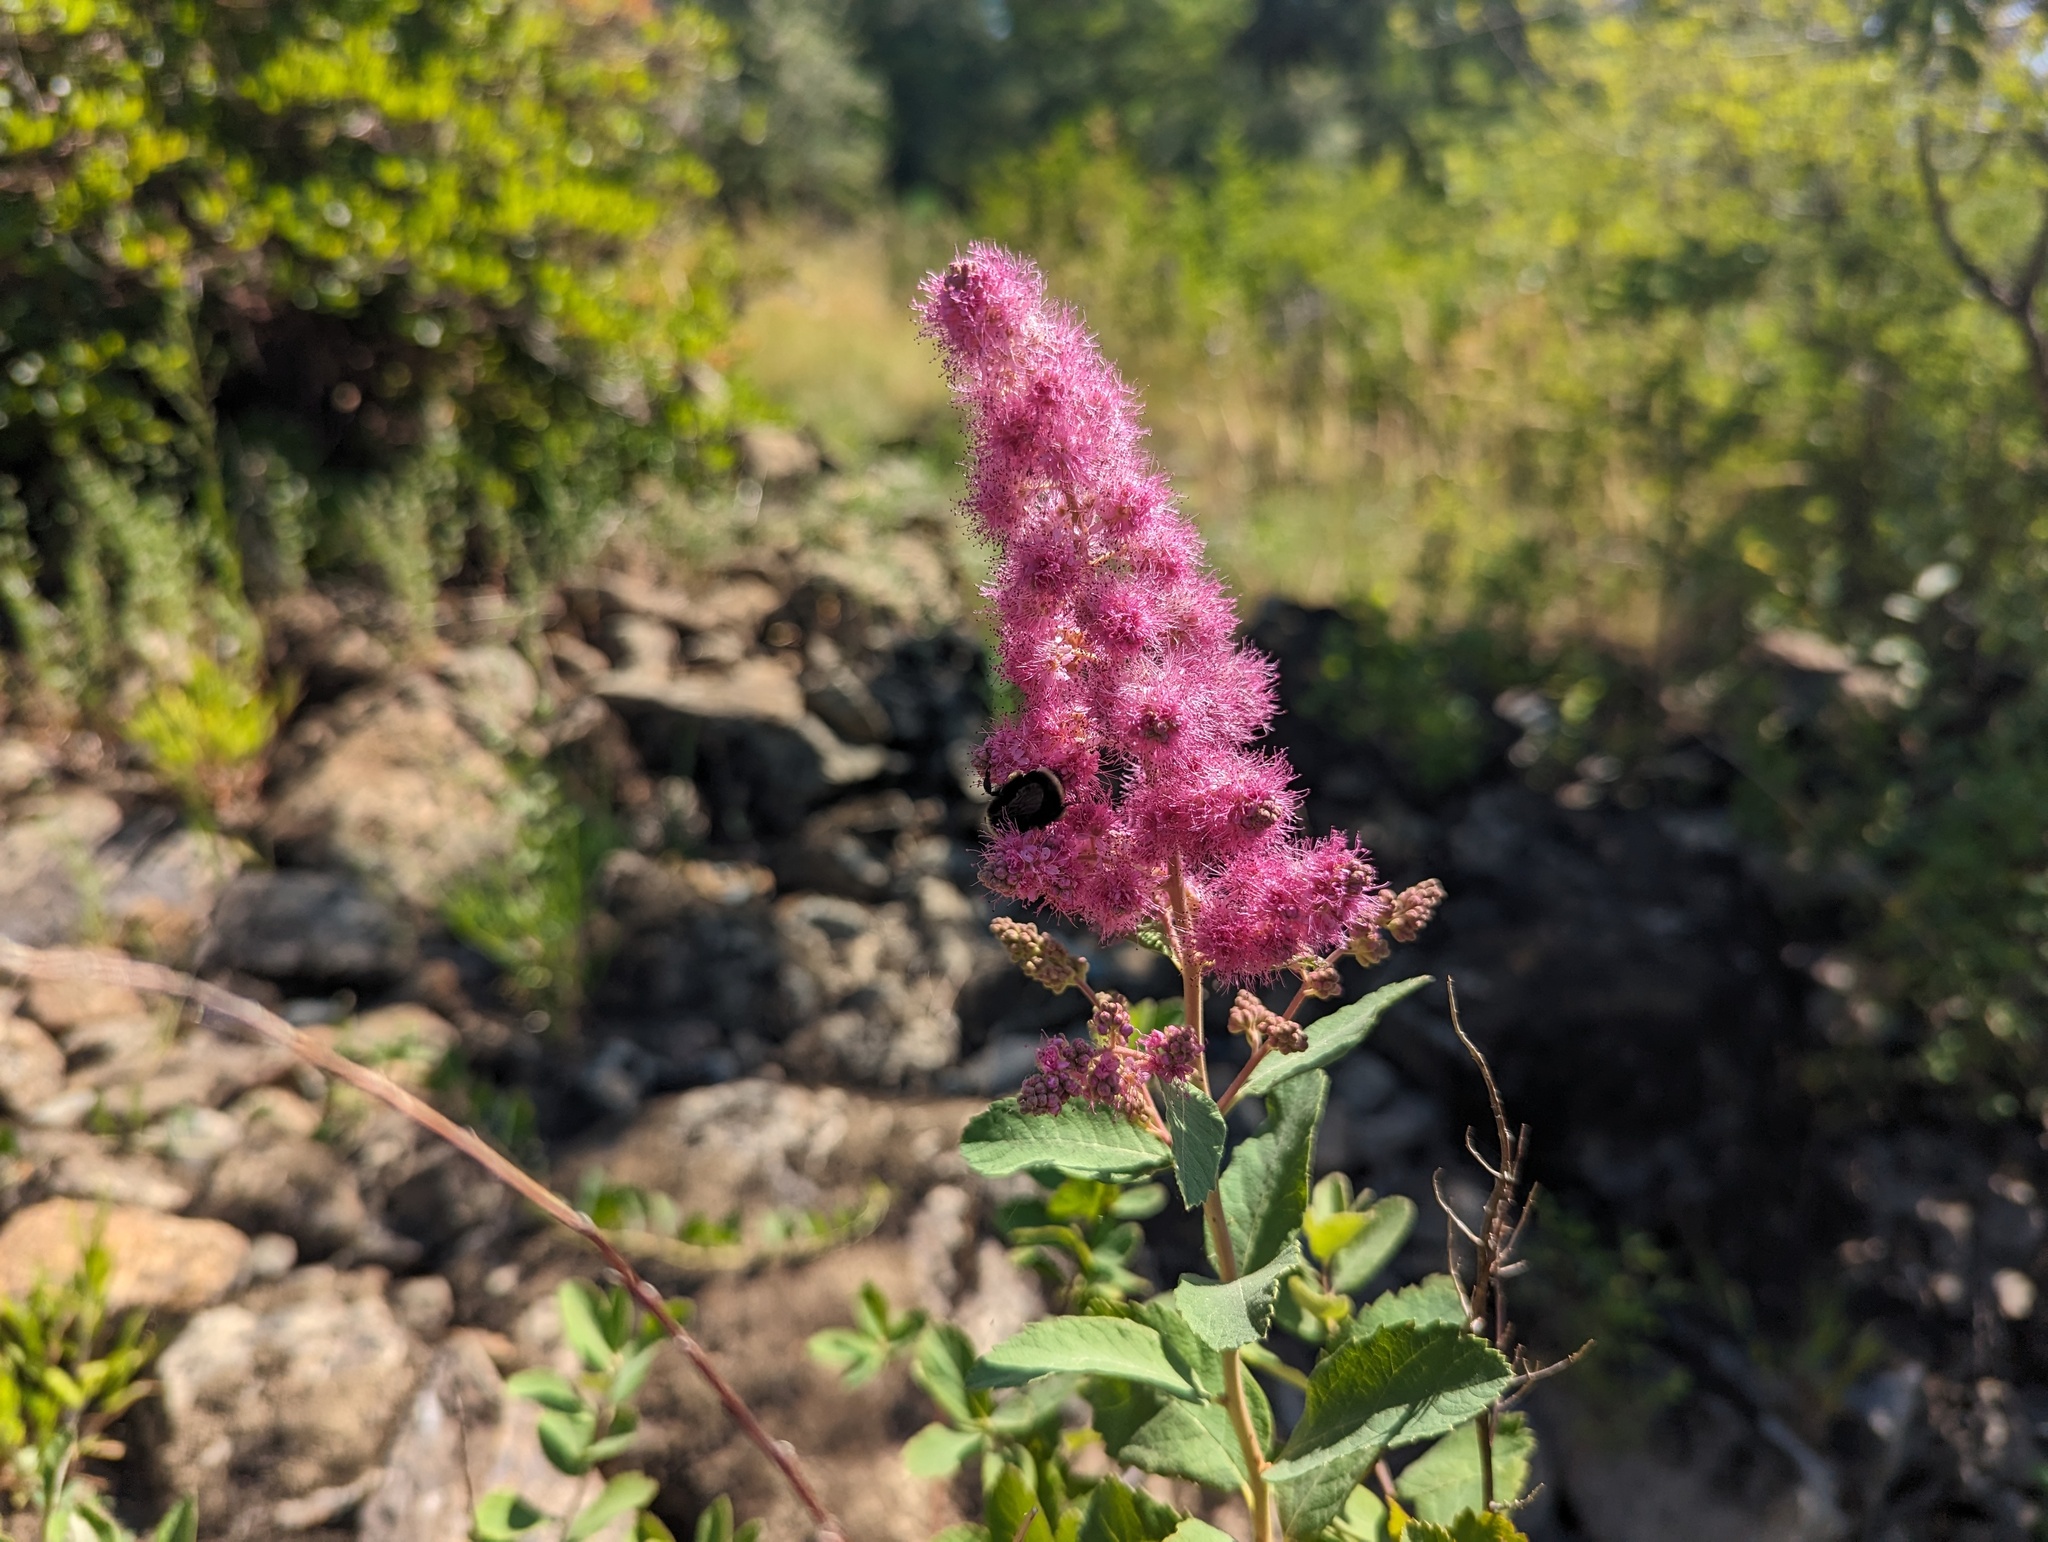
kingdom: Plantae
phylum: Tracheophyta
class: Magnoliopsida
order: Rosales
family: Rosaceae
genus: Spiraea
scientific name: Spiraea douglasii
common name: Steeplebush
